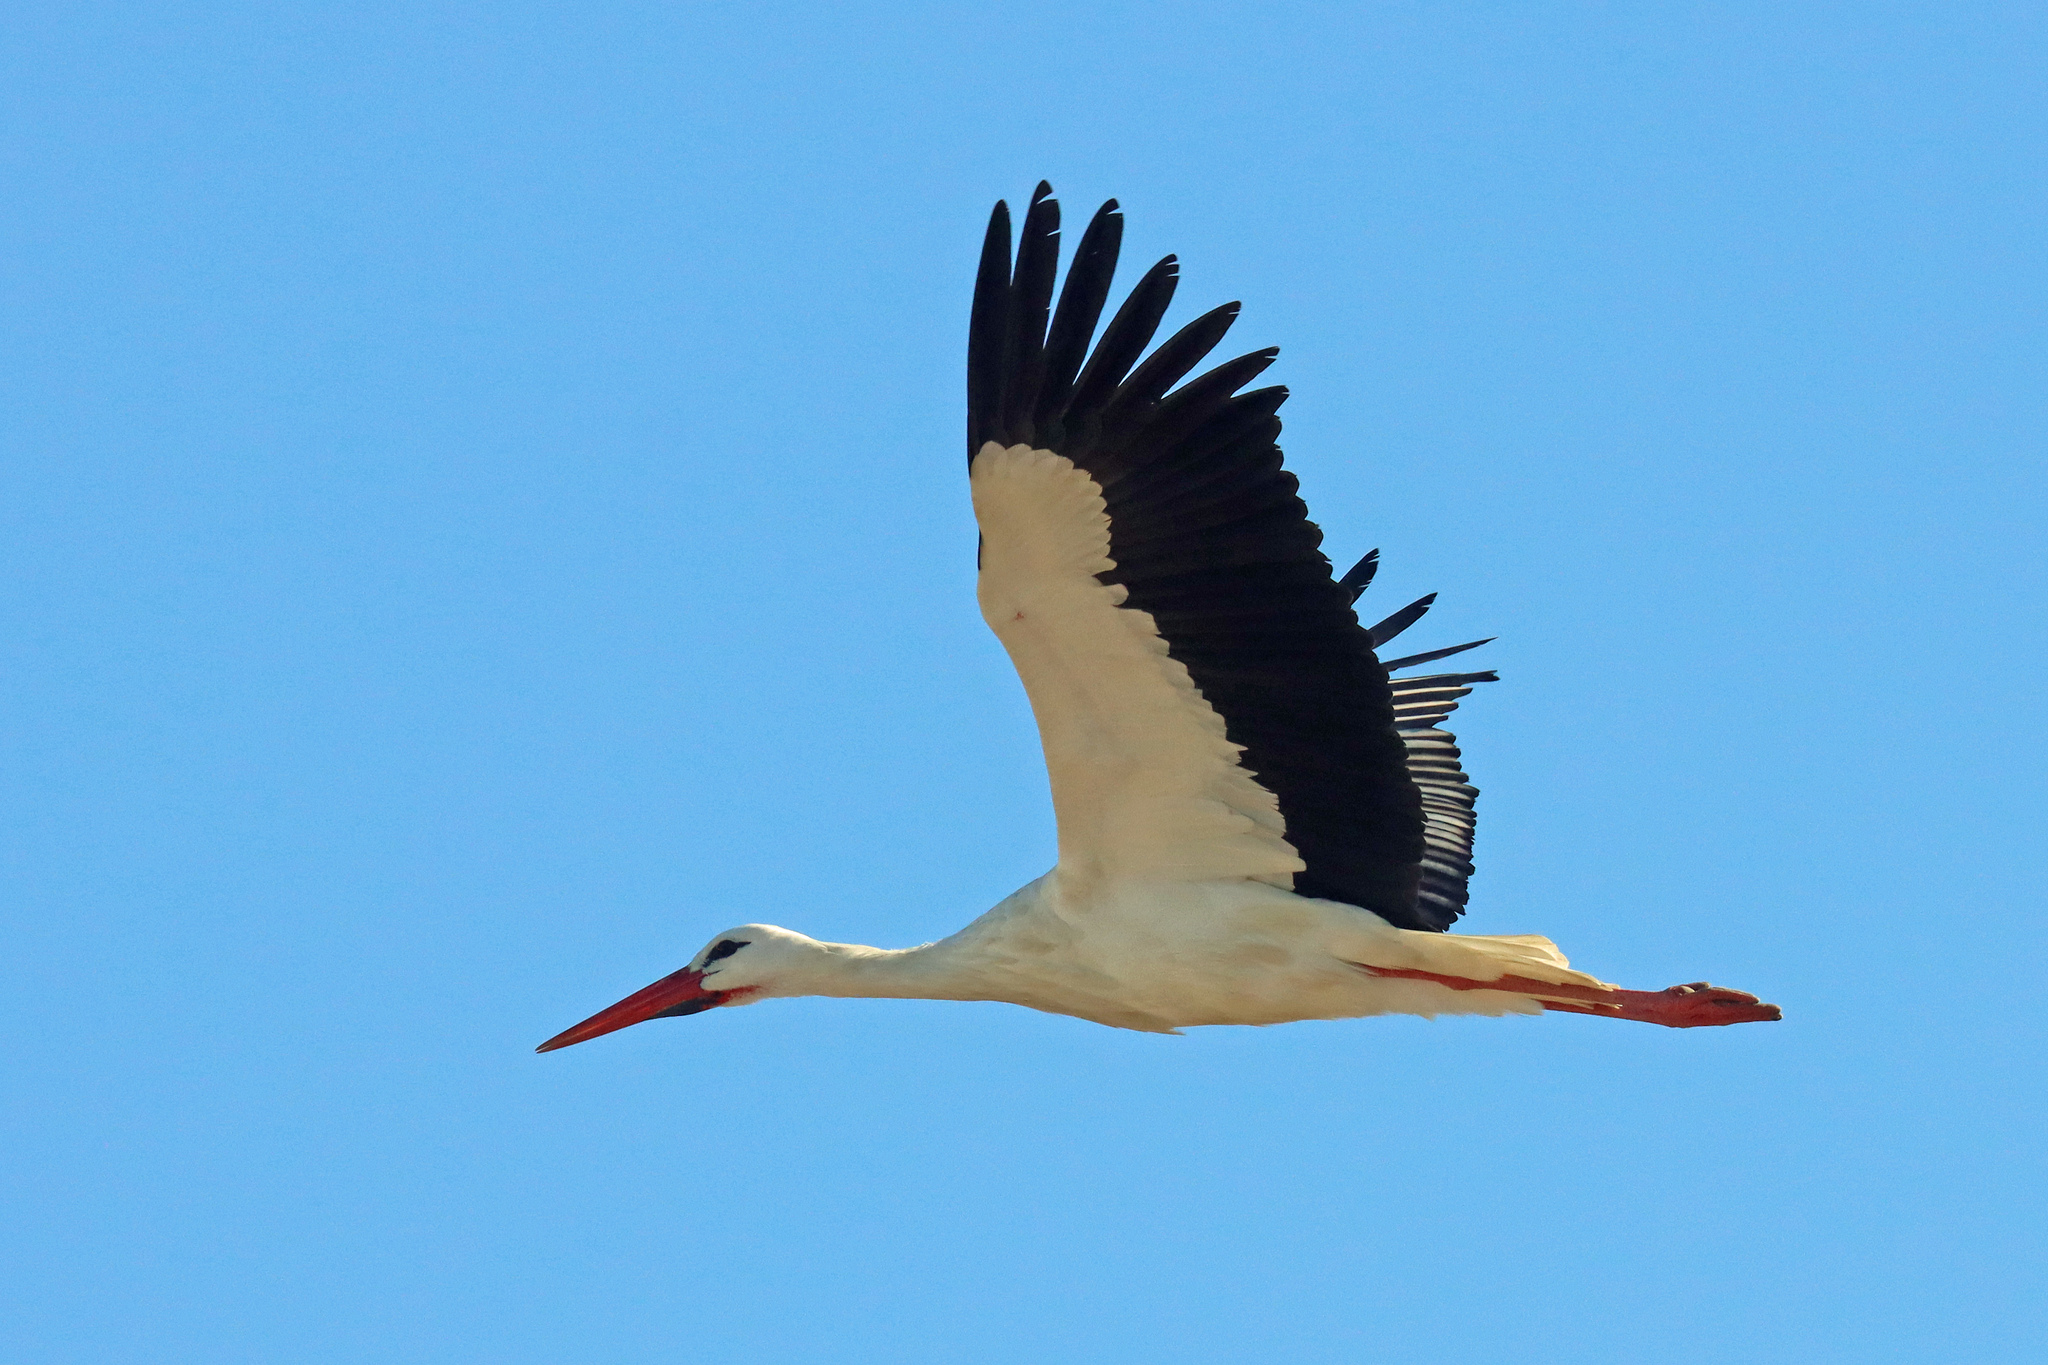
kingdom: Animalia
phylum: Chordata
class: Aves
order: Ciconiiformes
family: Ciconiidae
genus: Ciconia
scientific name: Ciconia ciconia
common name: White stork
